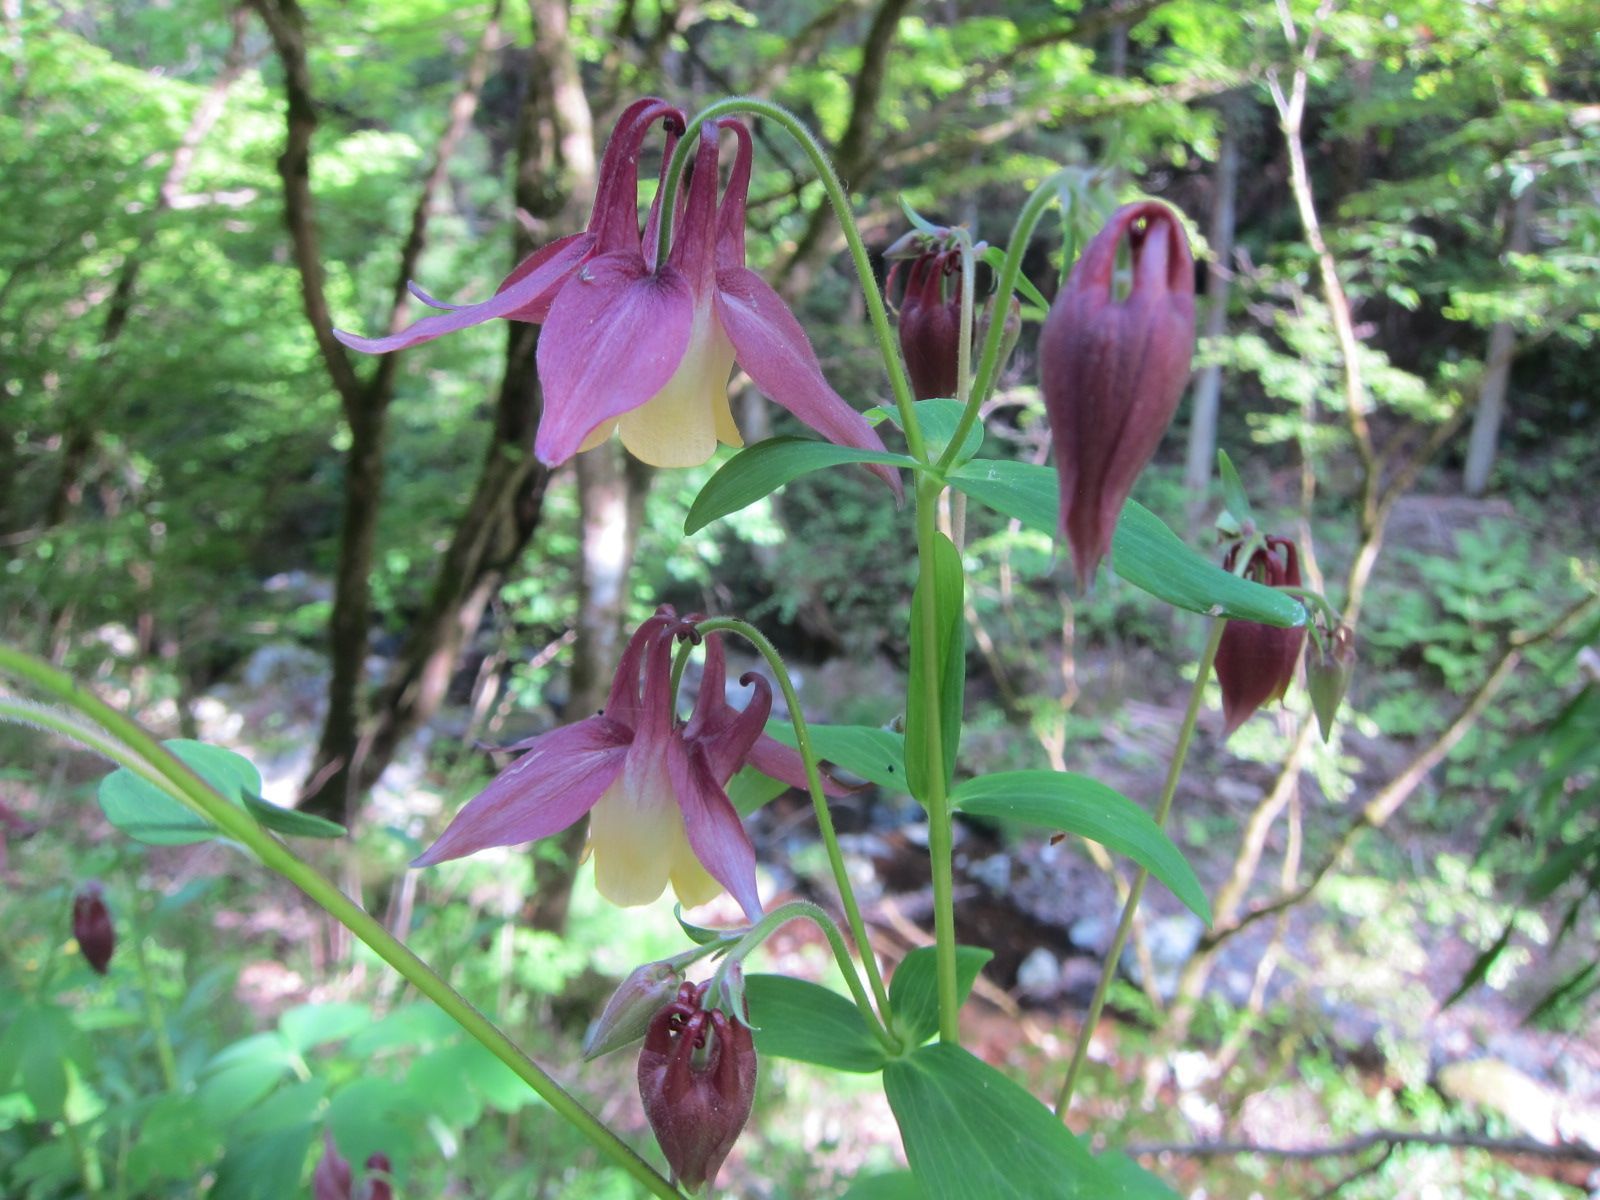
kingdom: Plantae
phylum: Tracheophyta
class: Magnoliopsida
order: Ranunculales
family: Ranunculaceae
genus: Aquilegia
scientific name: Aquilegia oxysepala
